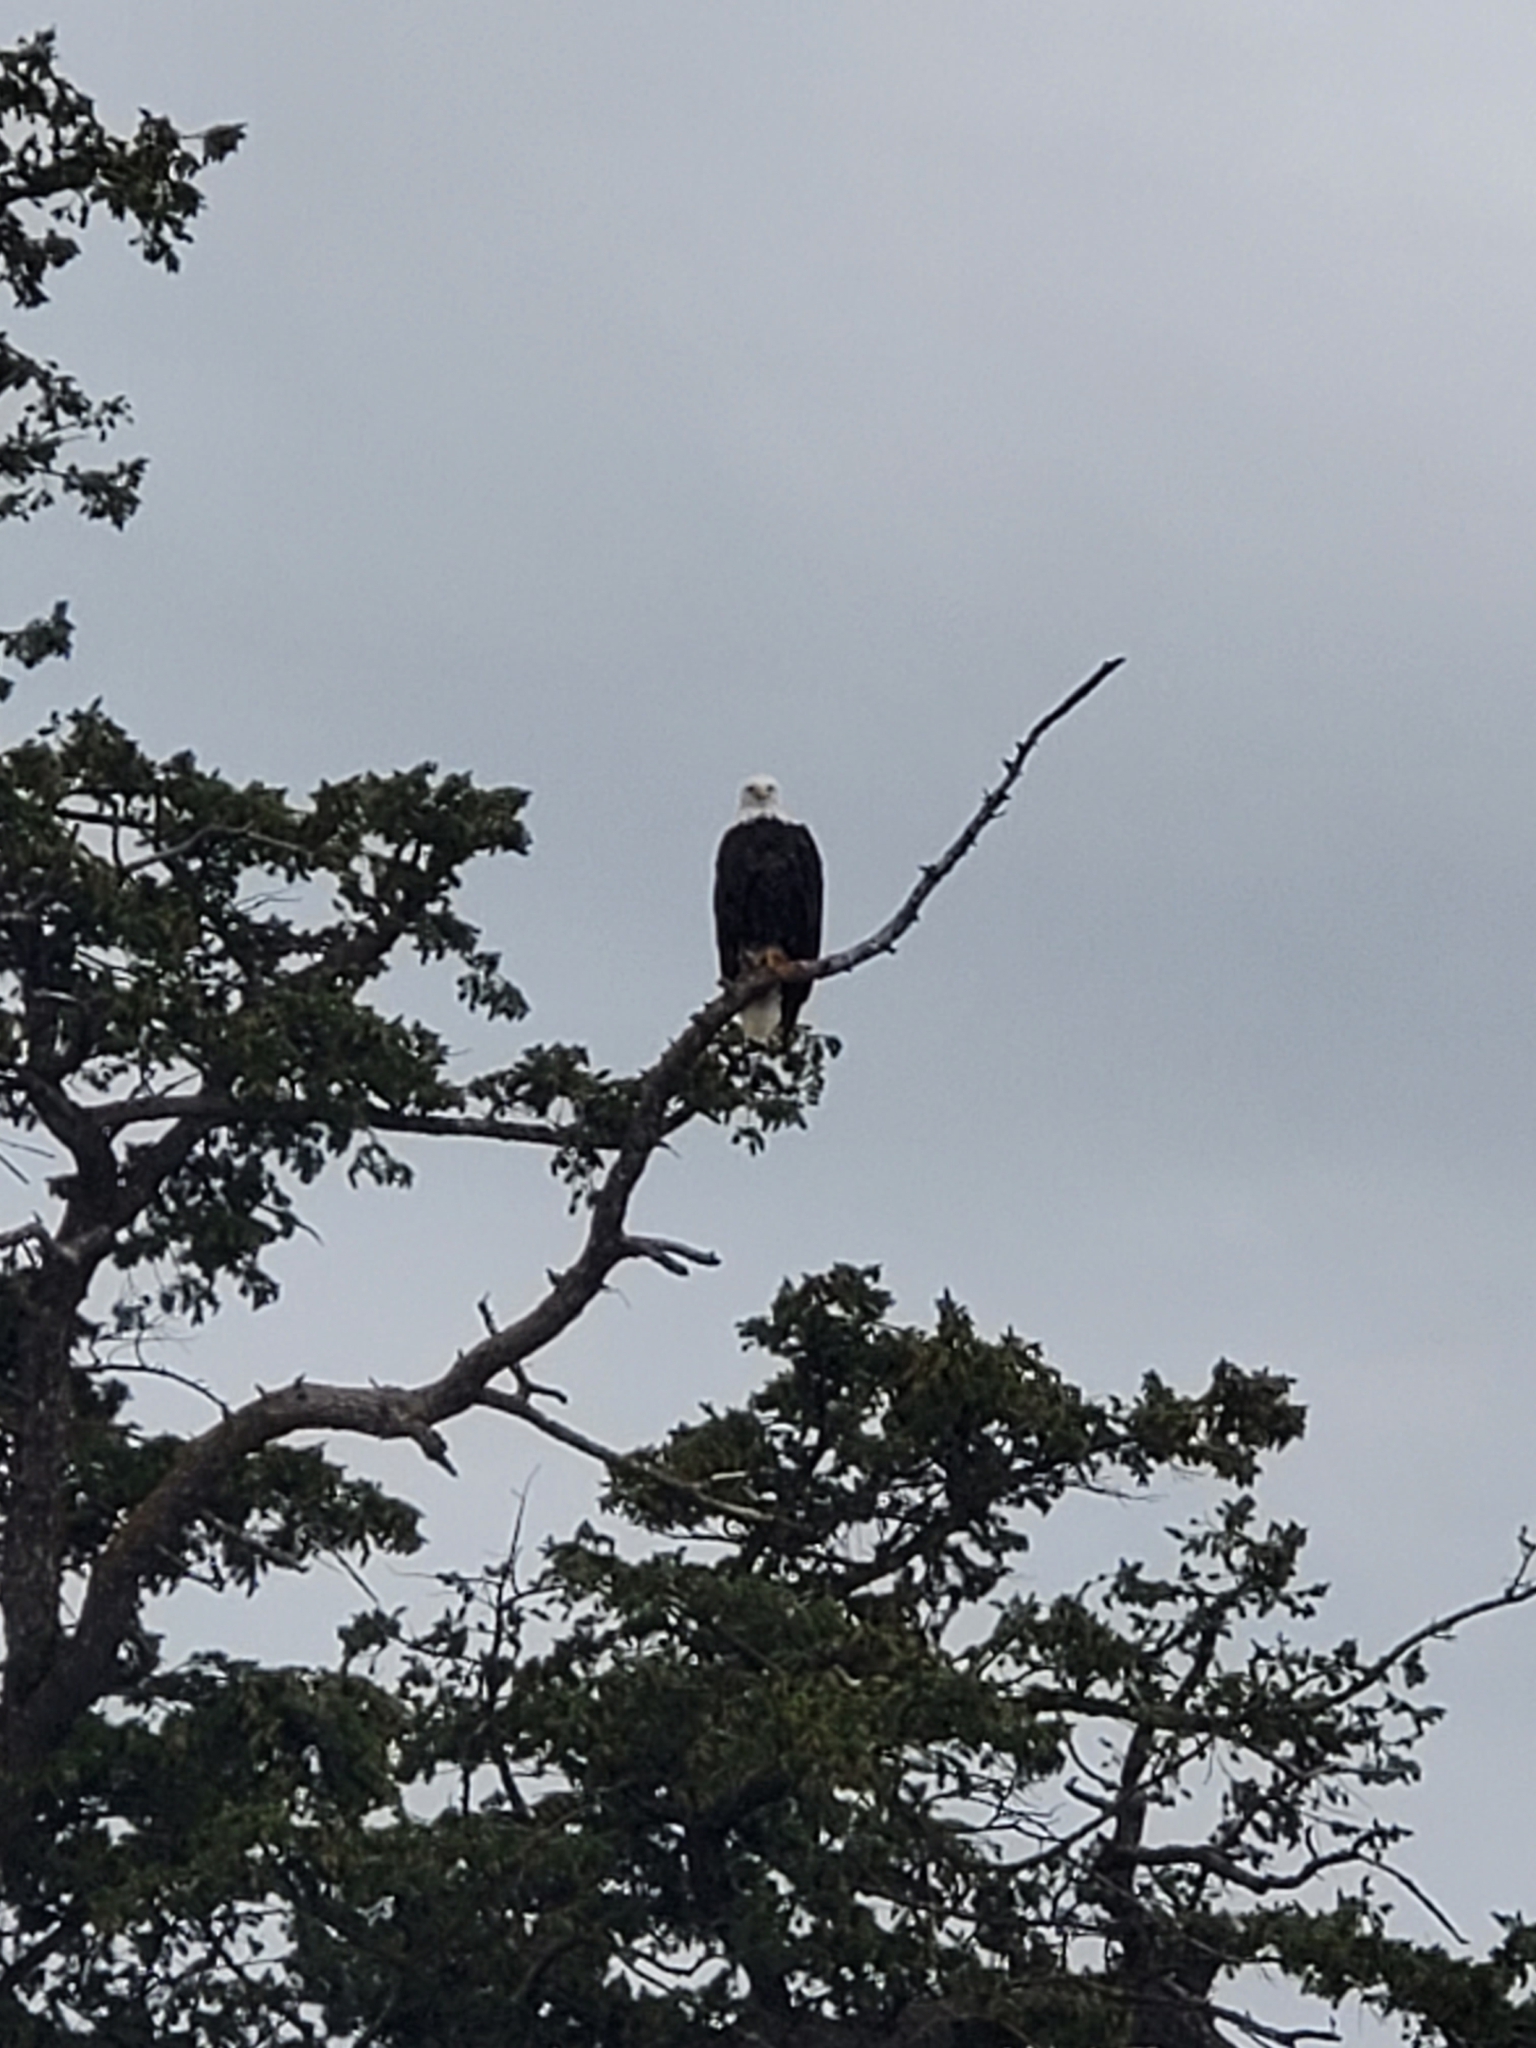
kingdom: Animalia
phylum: Chordata
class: Aves
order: Accipitriformes
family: Accipitridae
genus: Haliaeetus
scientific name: Haliaeetus leucocephalus
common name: Bald eagle
